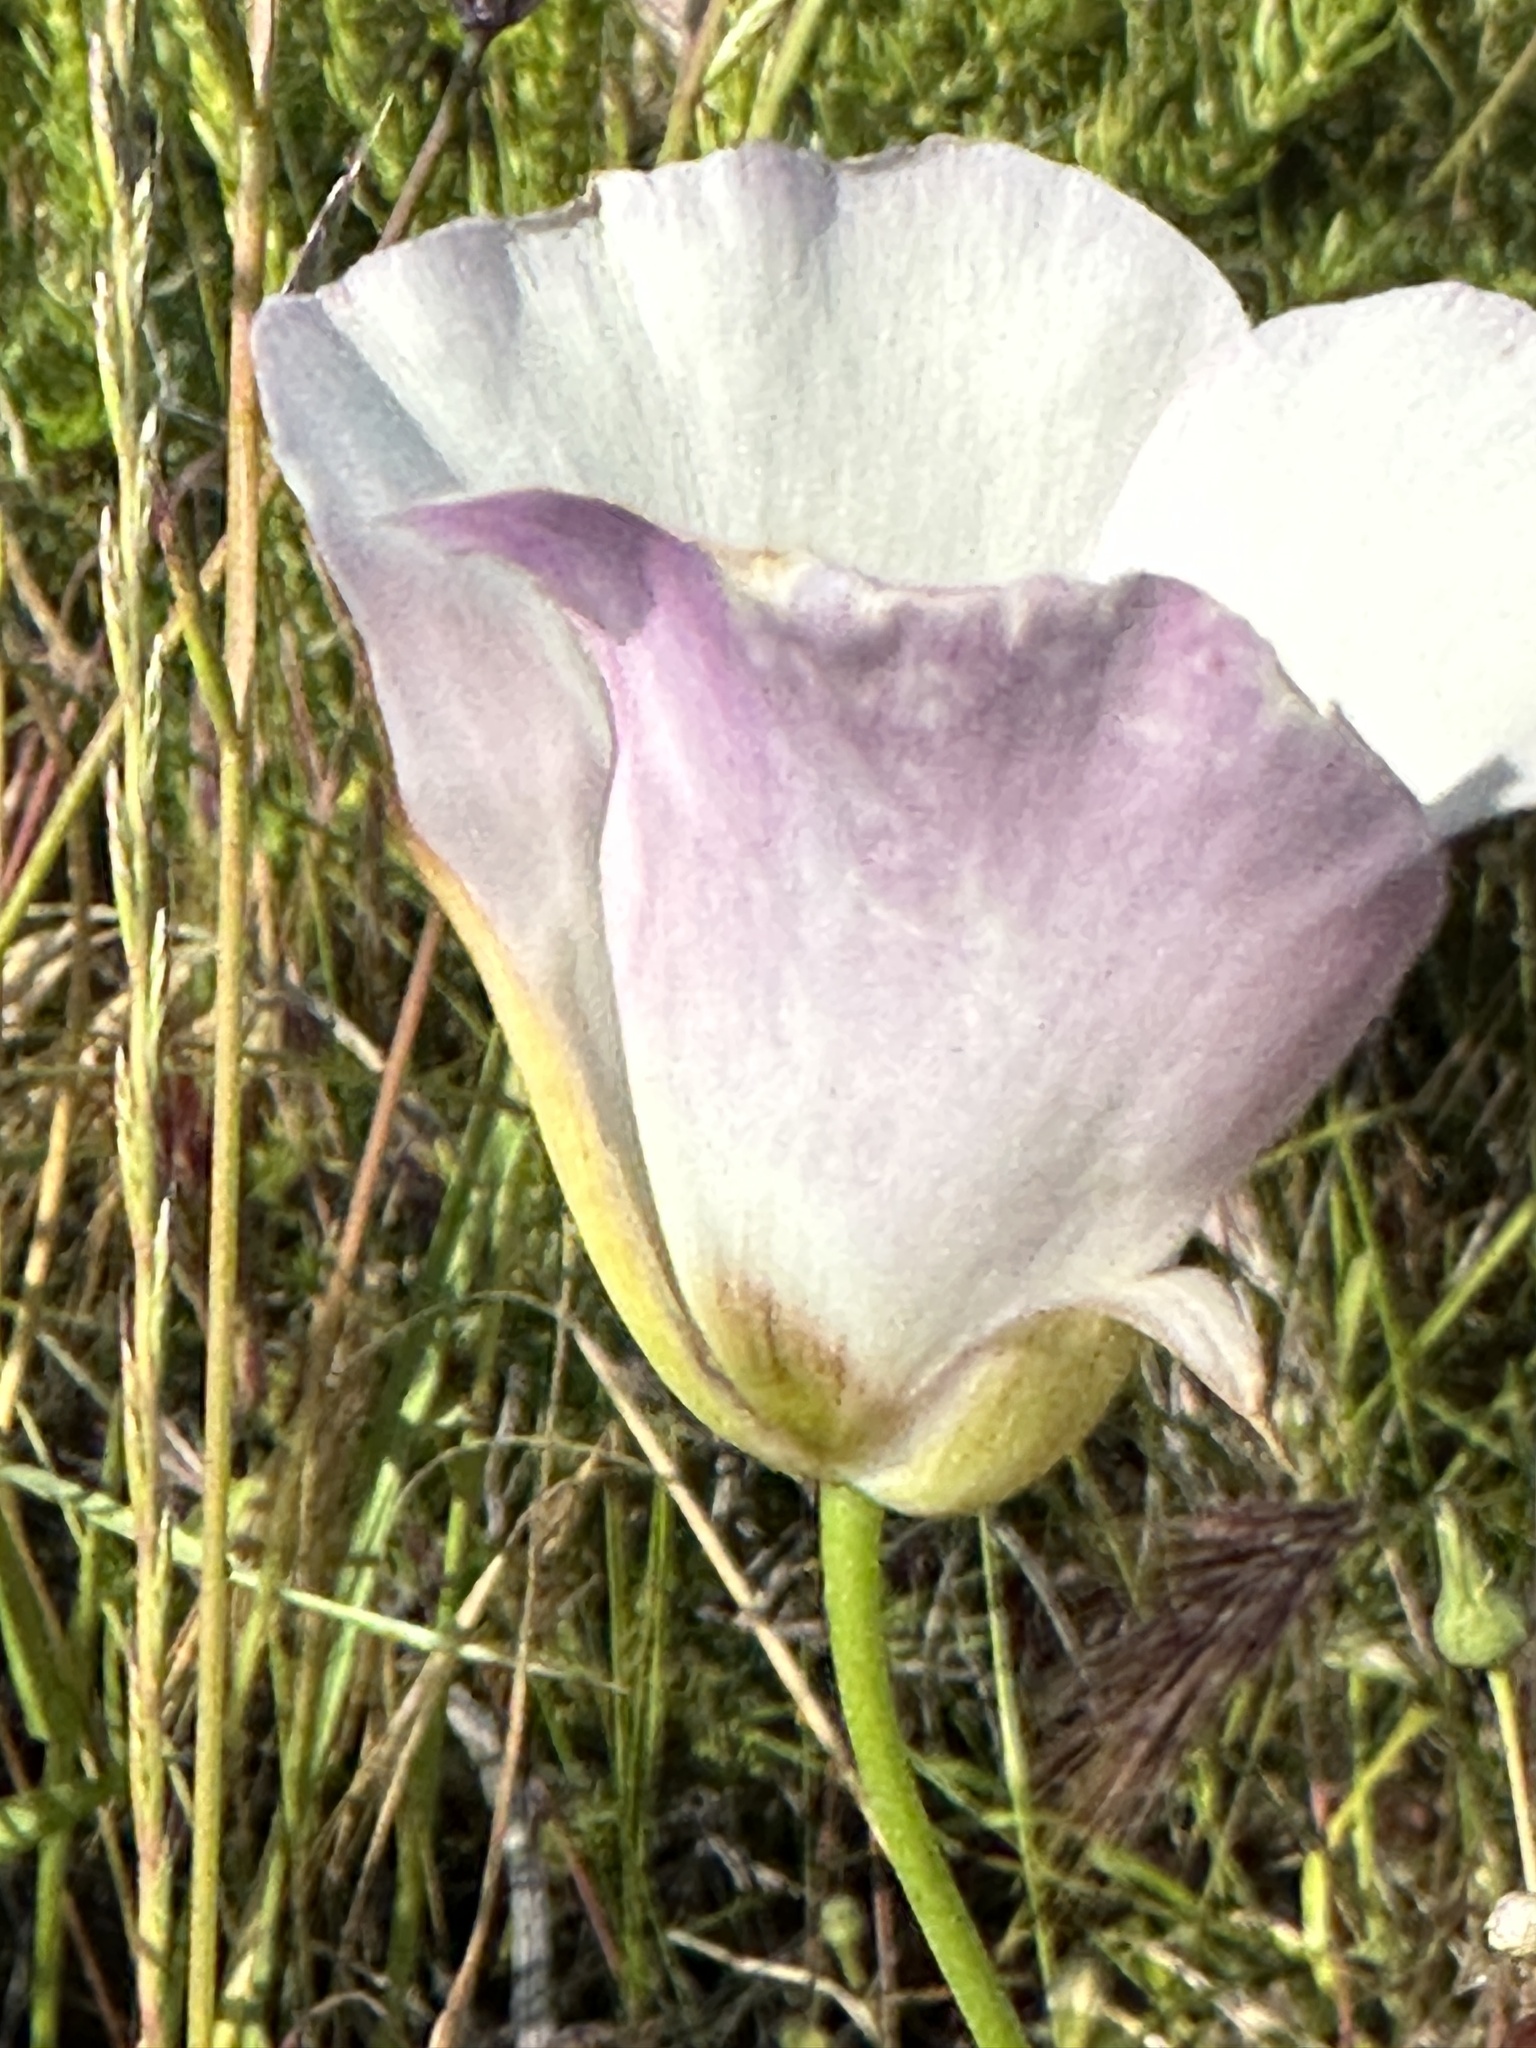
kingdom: Plantae
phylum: Tracheophyta
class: Liliopsida
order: Liliales
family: Liliaceae
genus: Calochortus
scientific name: Calochortus catalinae
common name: Catalina mariposa-lily
